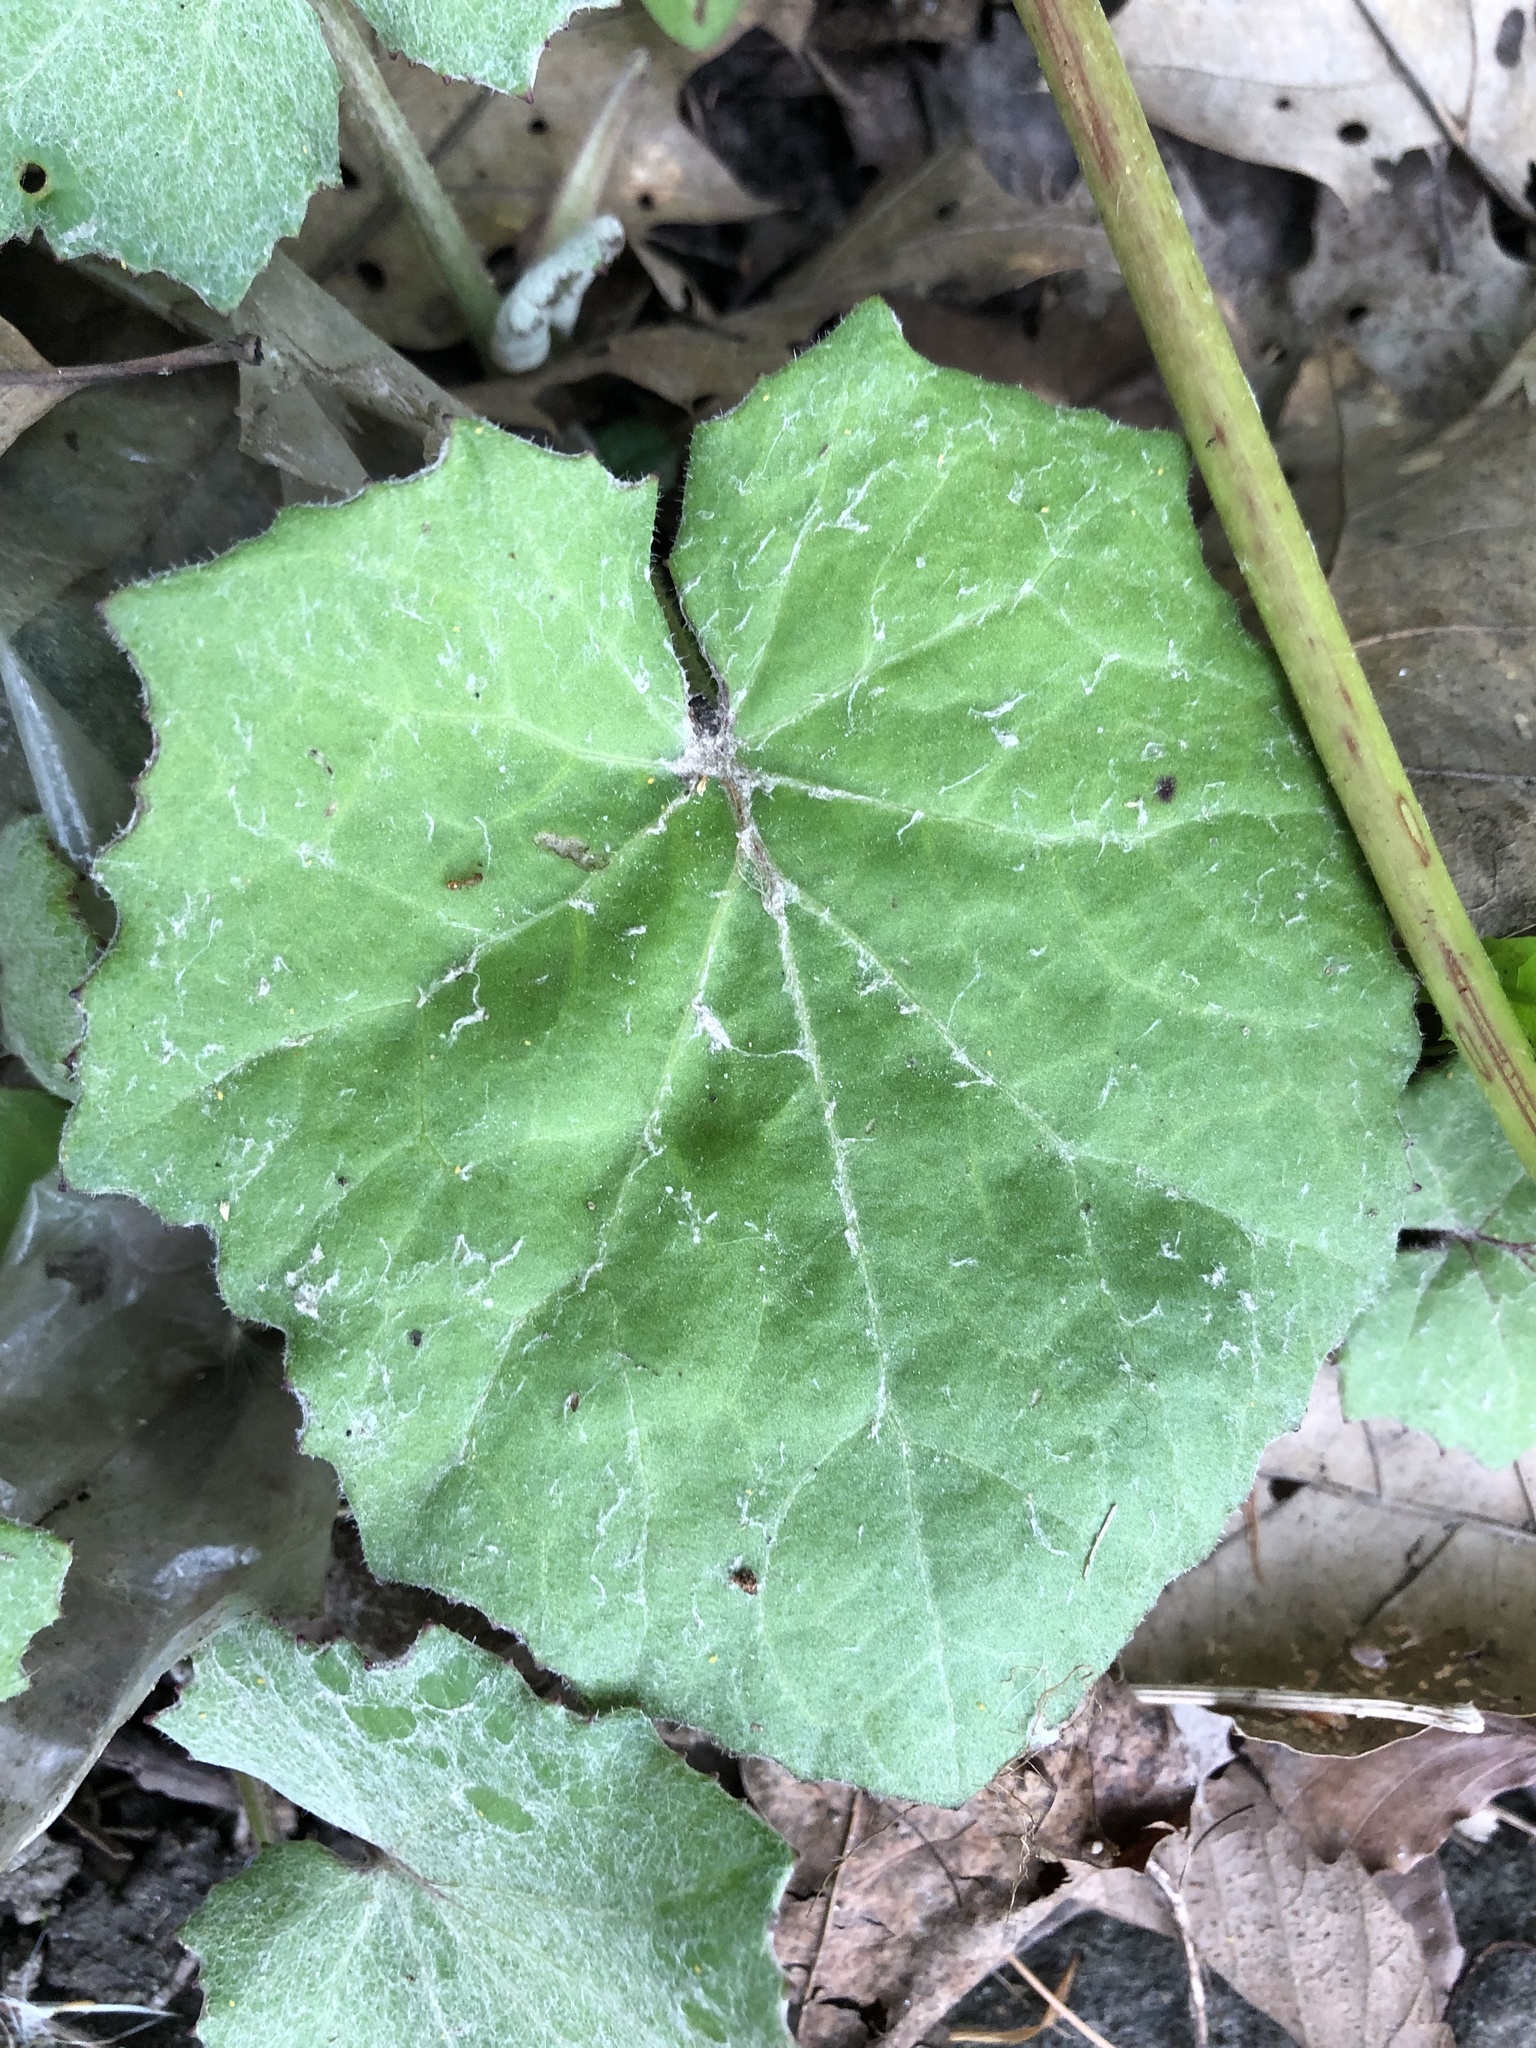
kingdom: Plantae
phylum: Tracheophyta
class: Magnoliopsida
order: Asterales
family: Asteraceae
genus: Tussilago
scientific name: Tussilago farfara
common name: Coltsfoot
